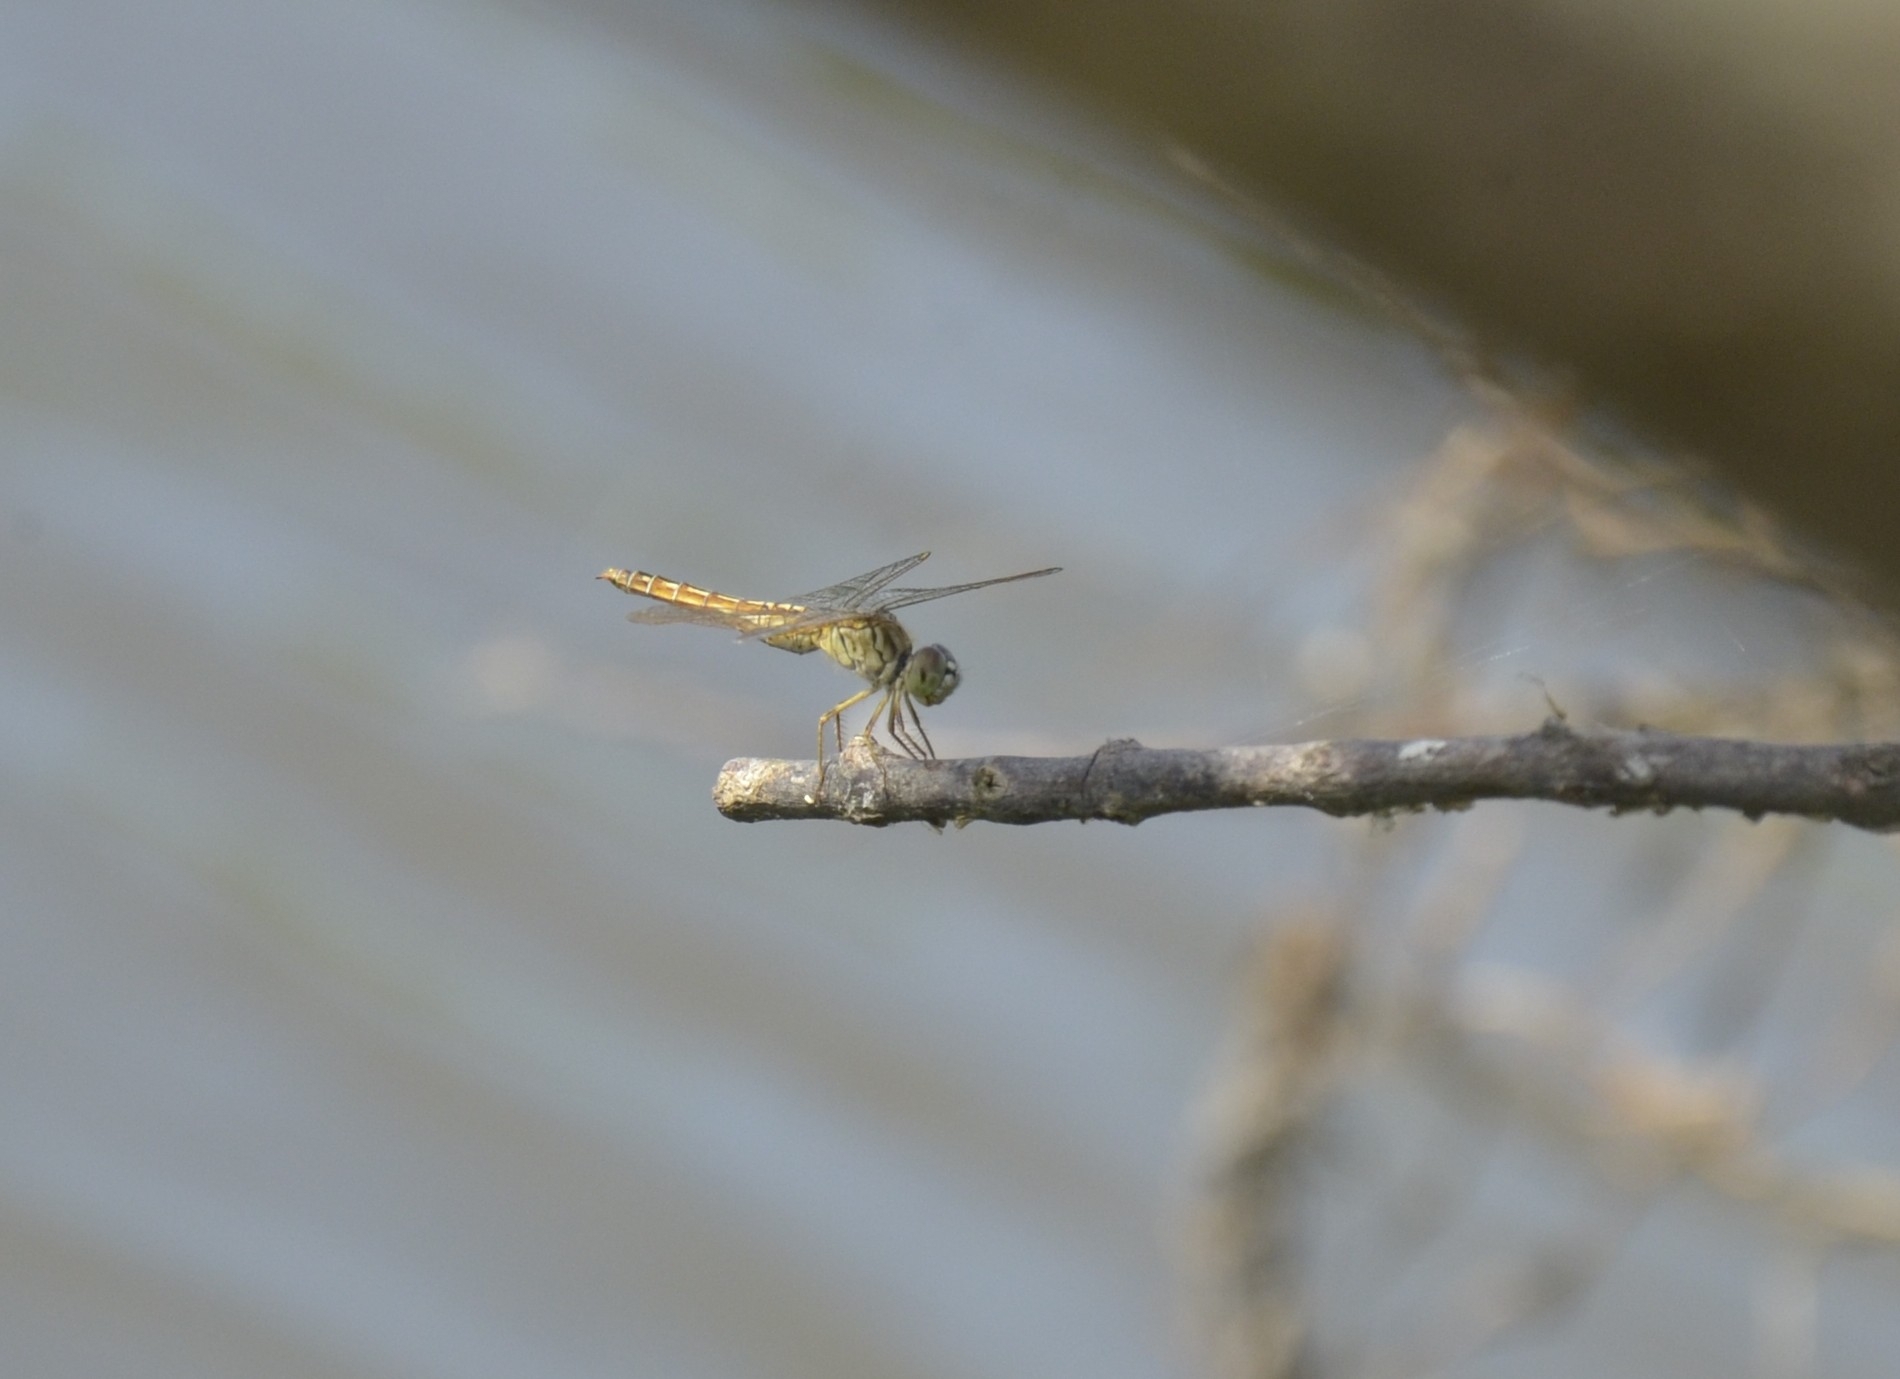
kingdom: Animalia
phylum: Arthropoda
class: Insecta
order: Odonata
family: Libellulidae
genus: Brachythemis
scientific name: Brachythemis contaminata
